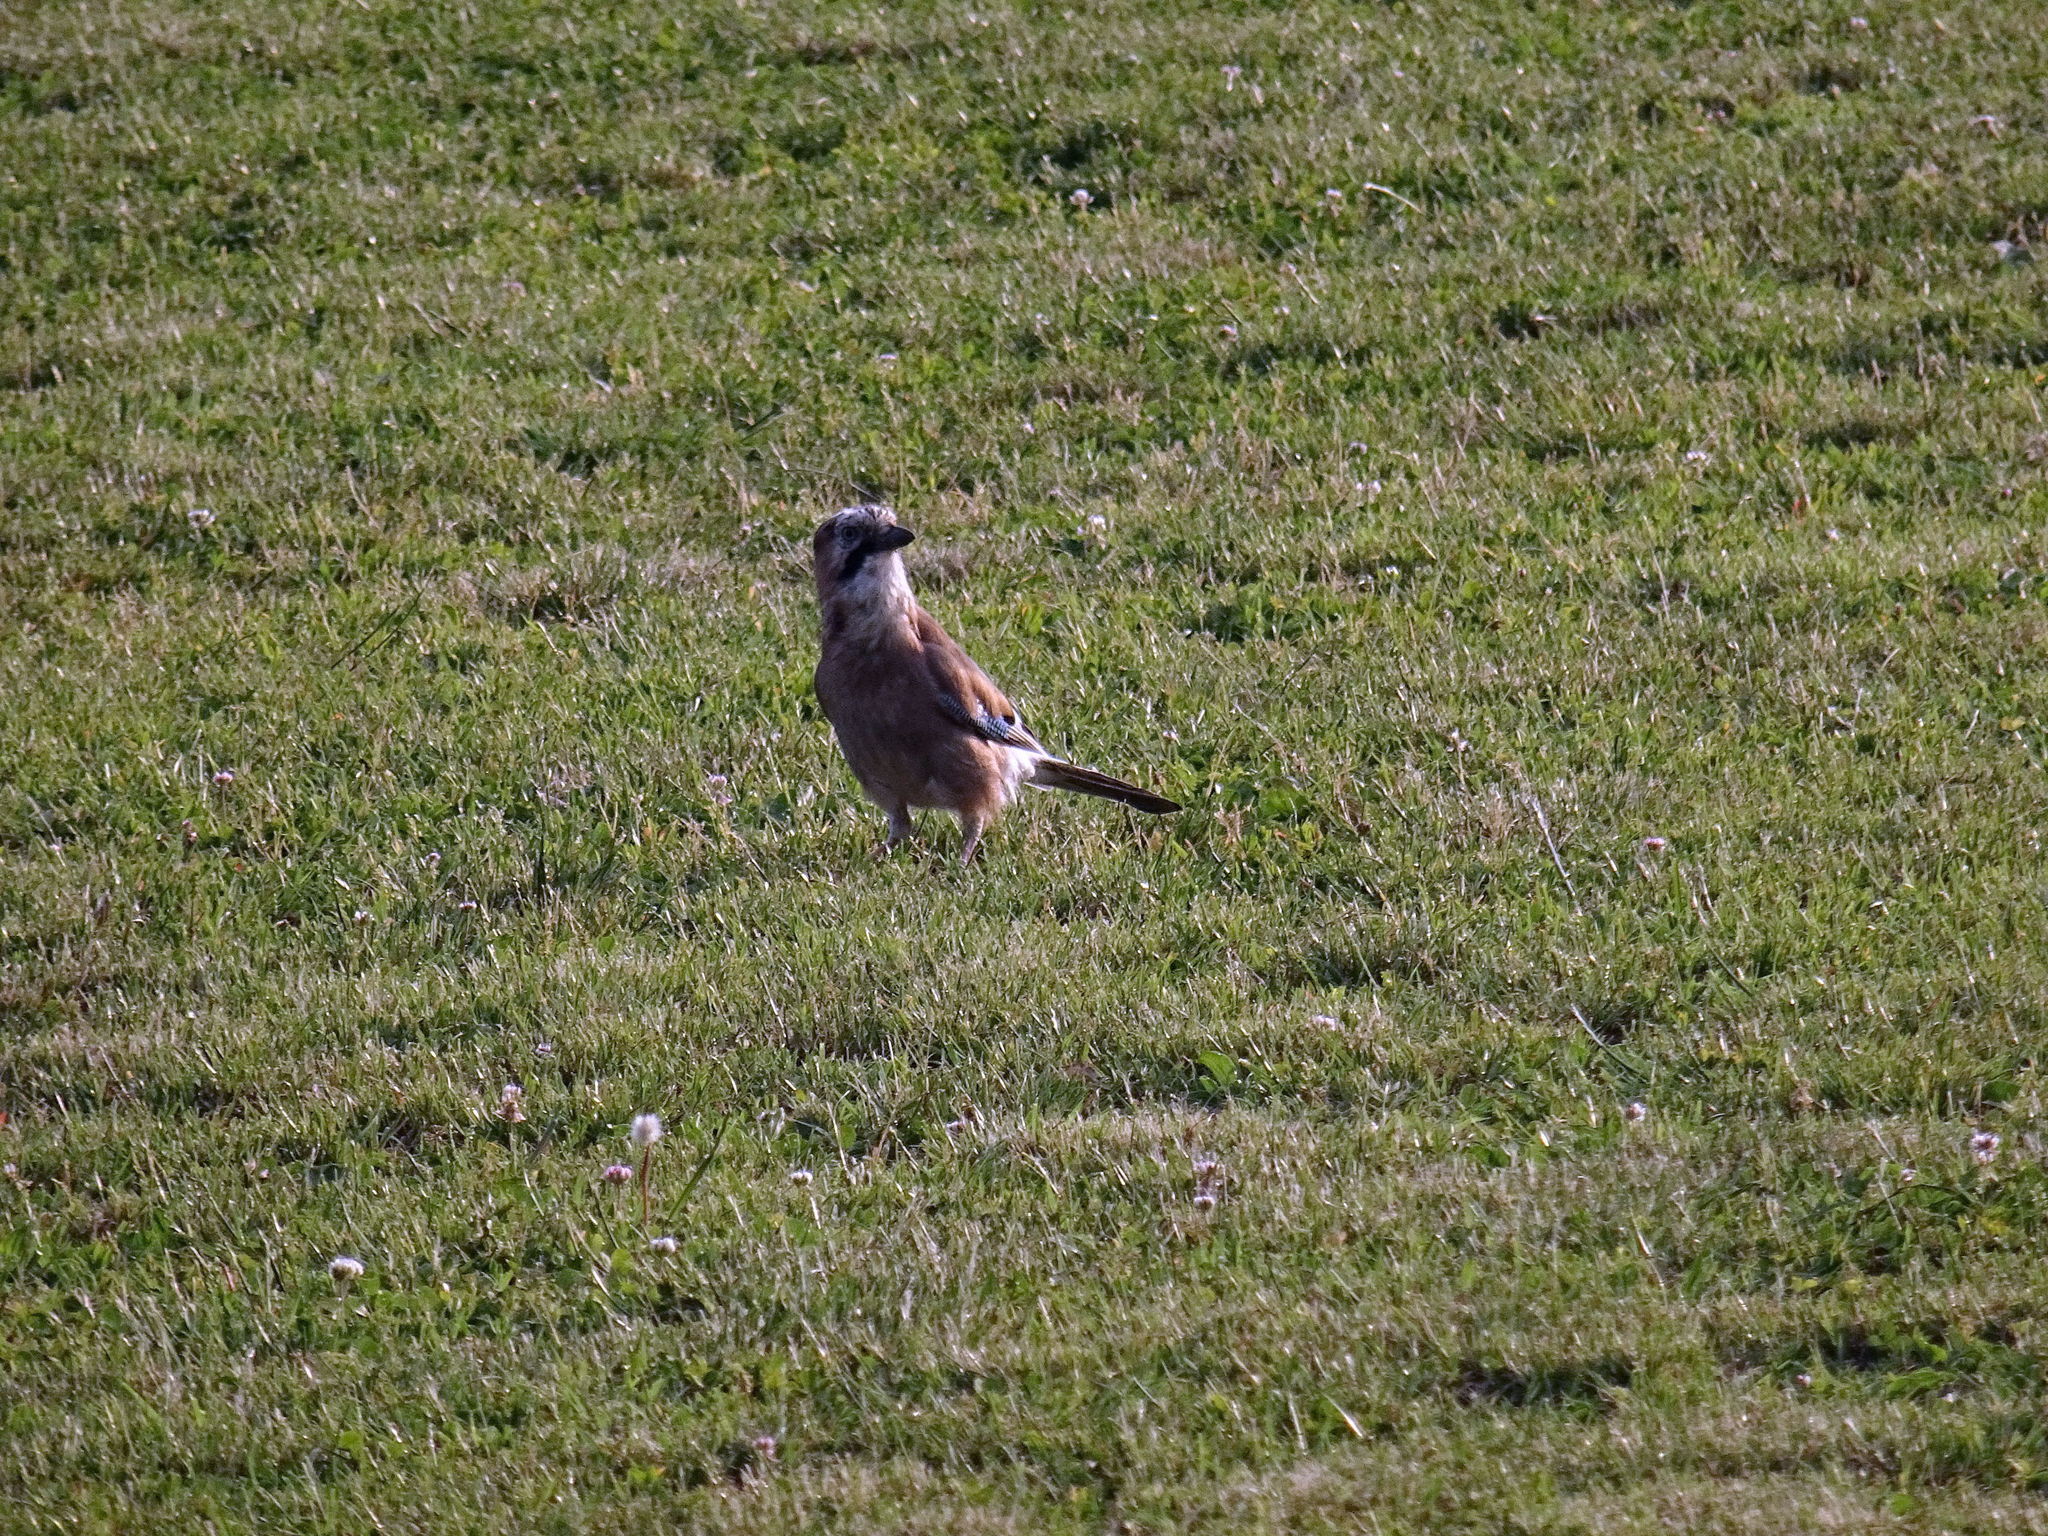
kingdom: Animalia
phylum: Chordata
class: Aves
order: Passeriformes
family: Corvidae
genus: Garrulus
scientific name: Garrulus glandarius
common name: Eurasian jay
